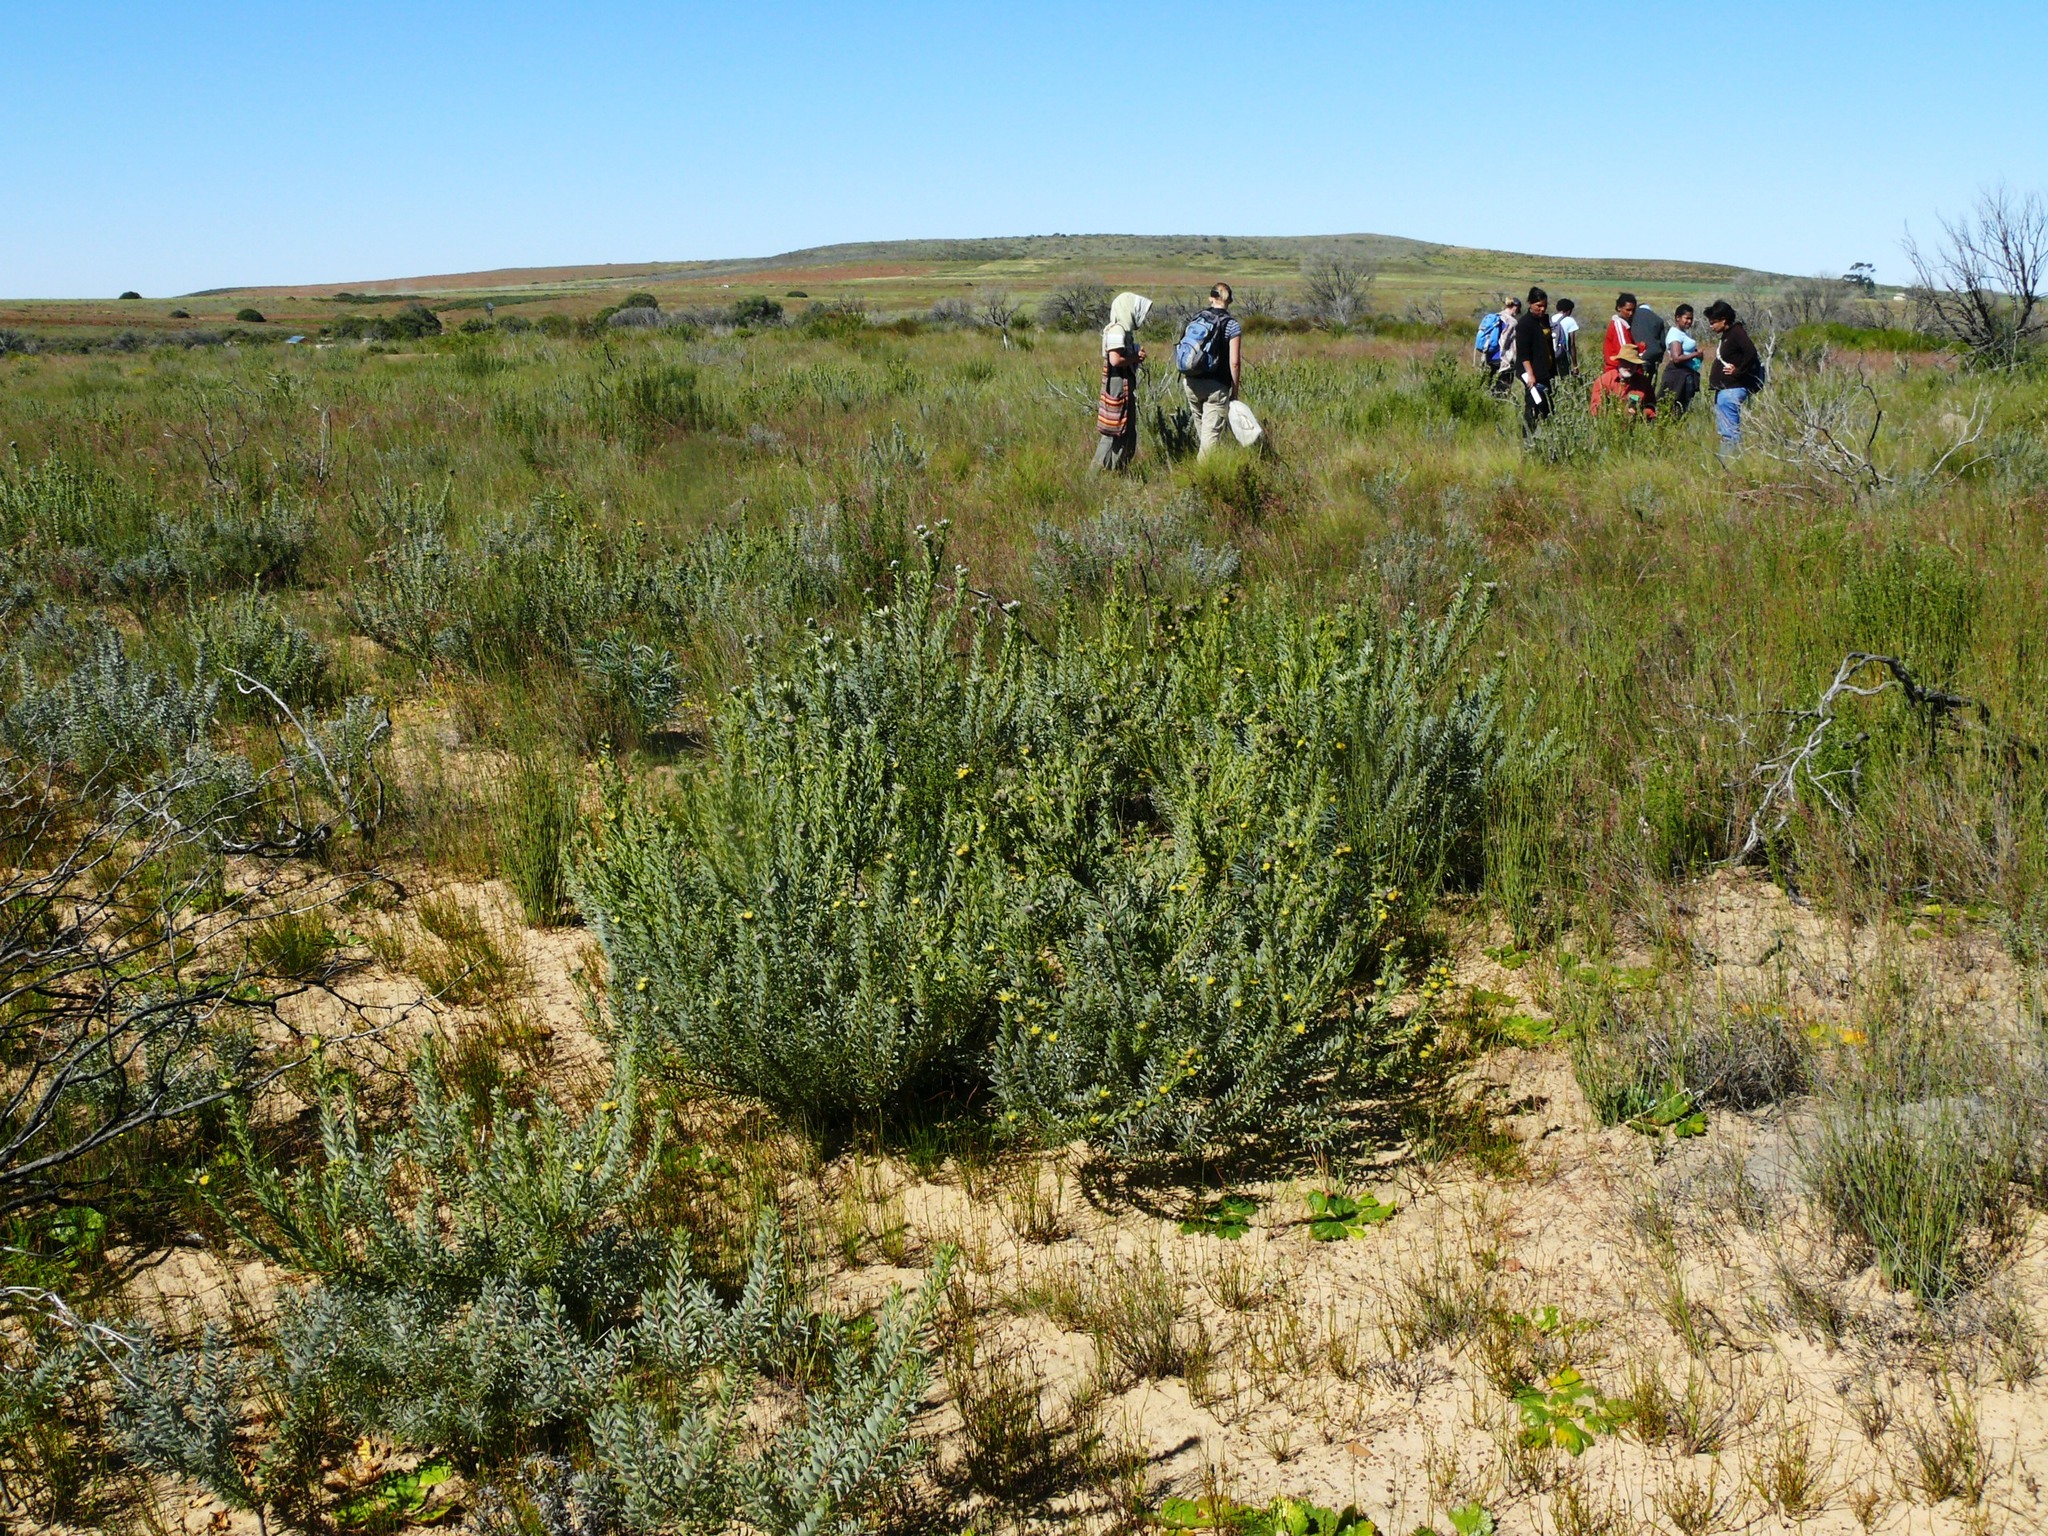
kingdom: Plantae
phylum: Tracheophyta
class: Magnoliopsida
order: Proteales
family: Proteaceae
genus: Leucadendron
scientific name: Leucadendron remotum
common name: Nieuwoudtville conebush
